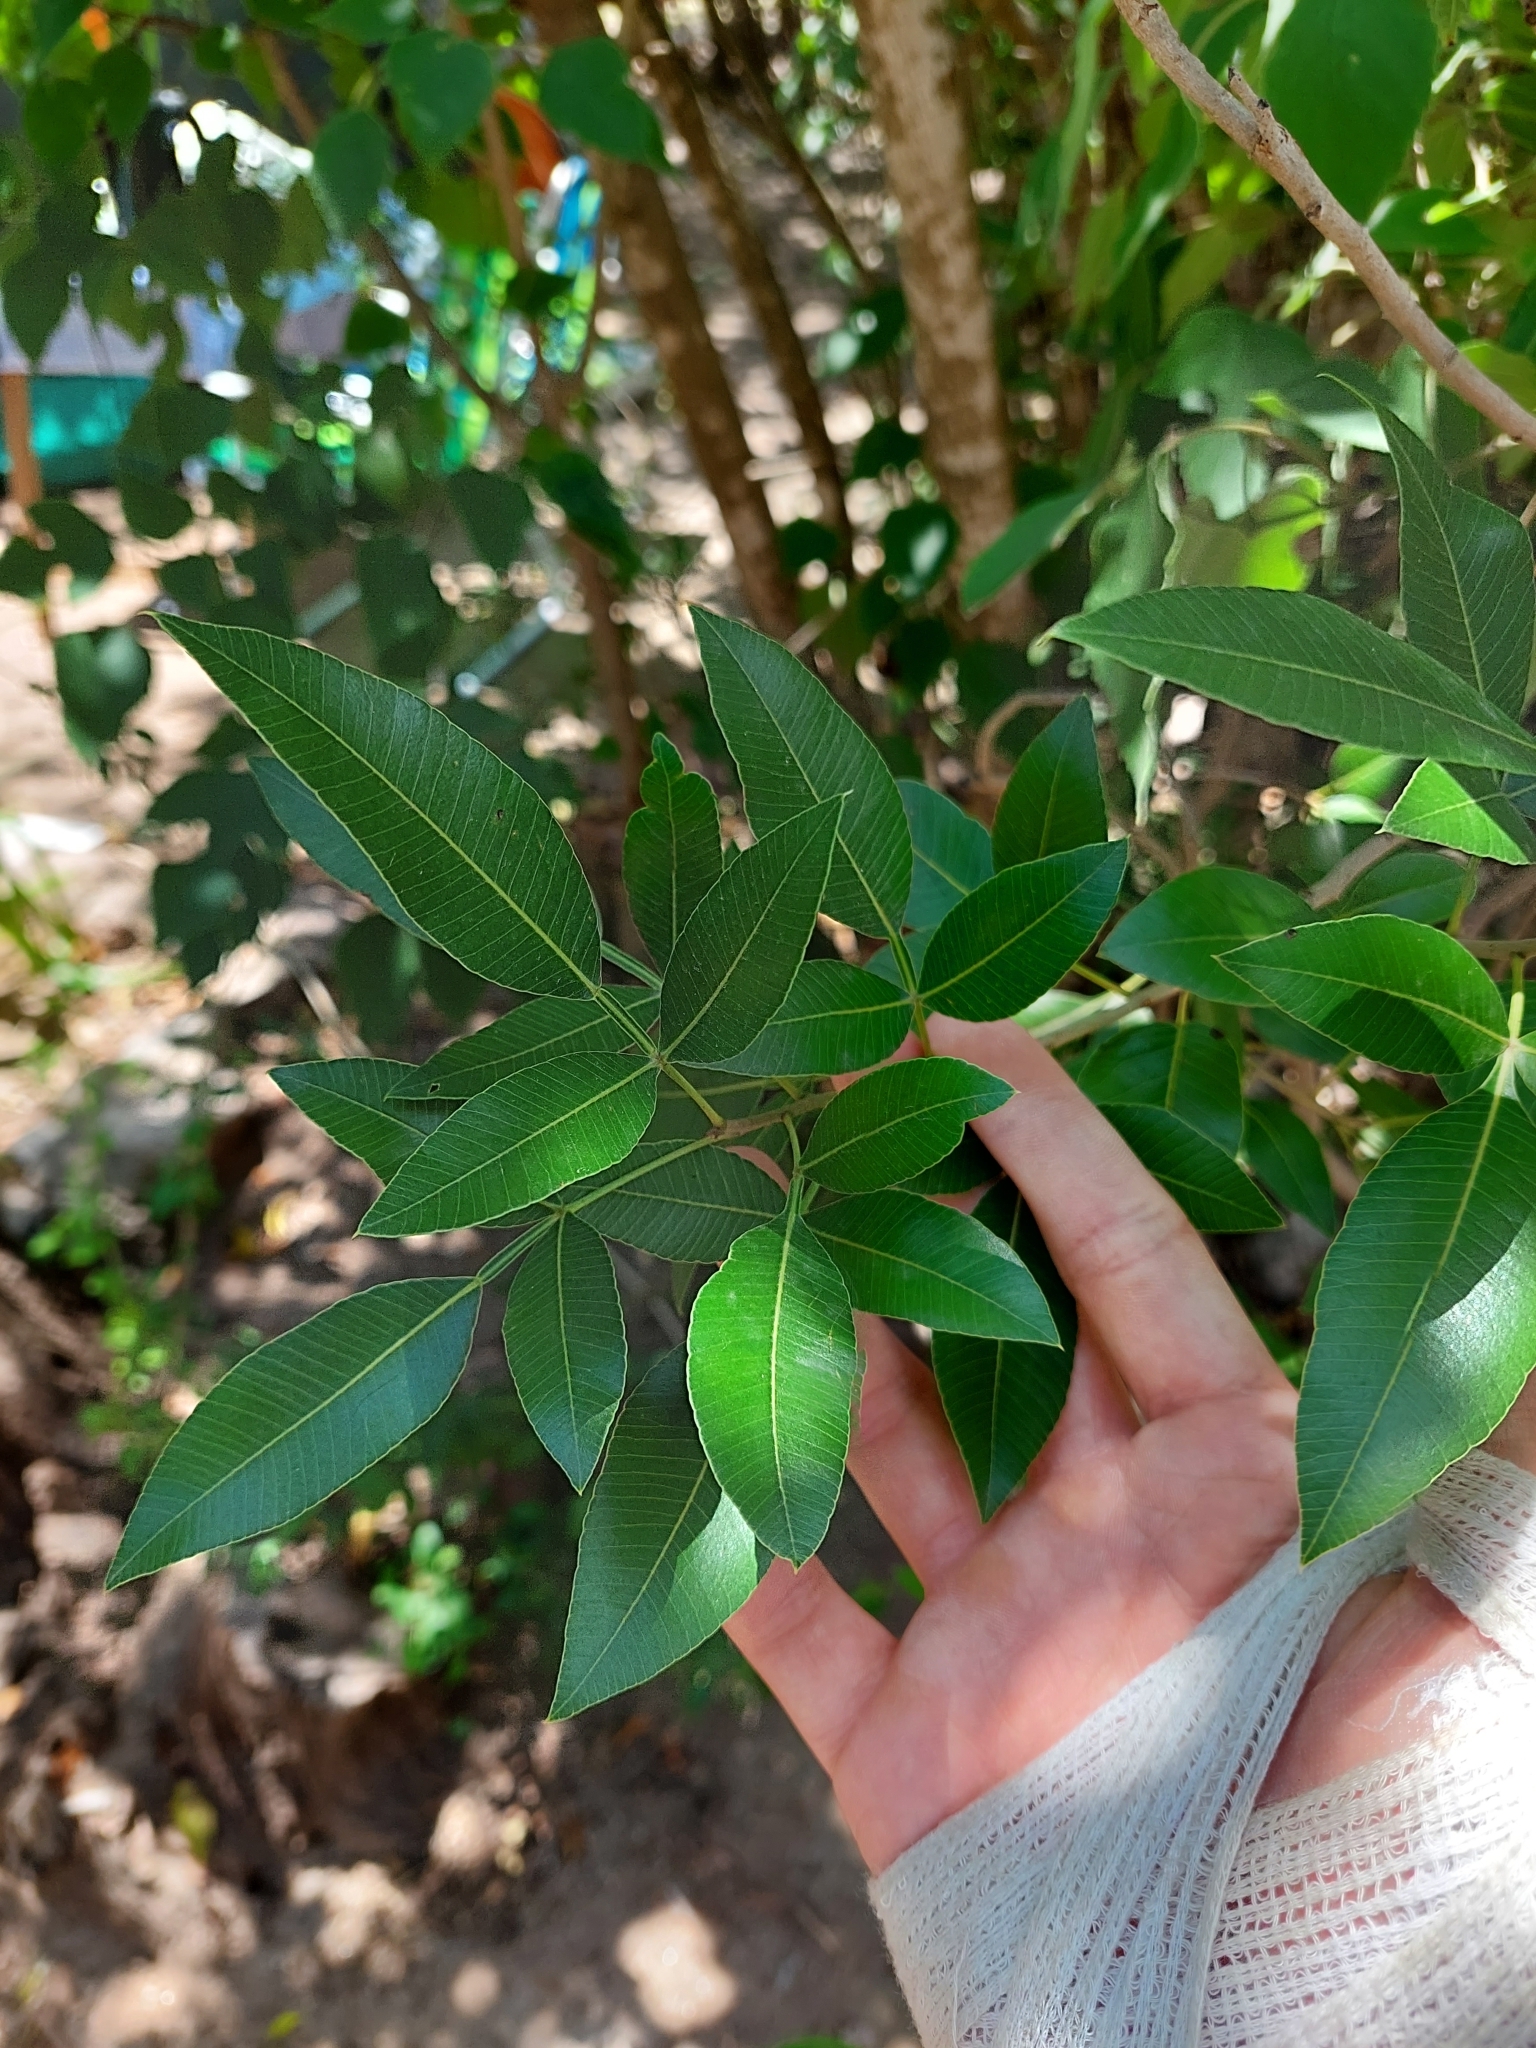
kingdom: Plantae
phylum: Tracheophyta
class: Magnoliopsida
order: Sapindales
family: Anacardiaceae
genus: Lithraea
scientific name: Lithraea molleoides
